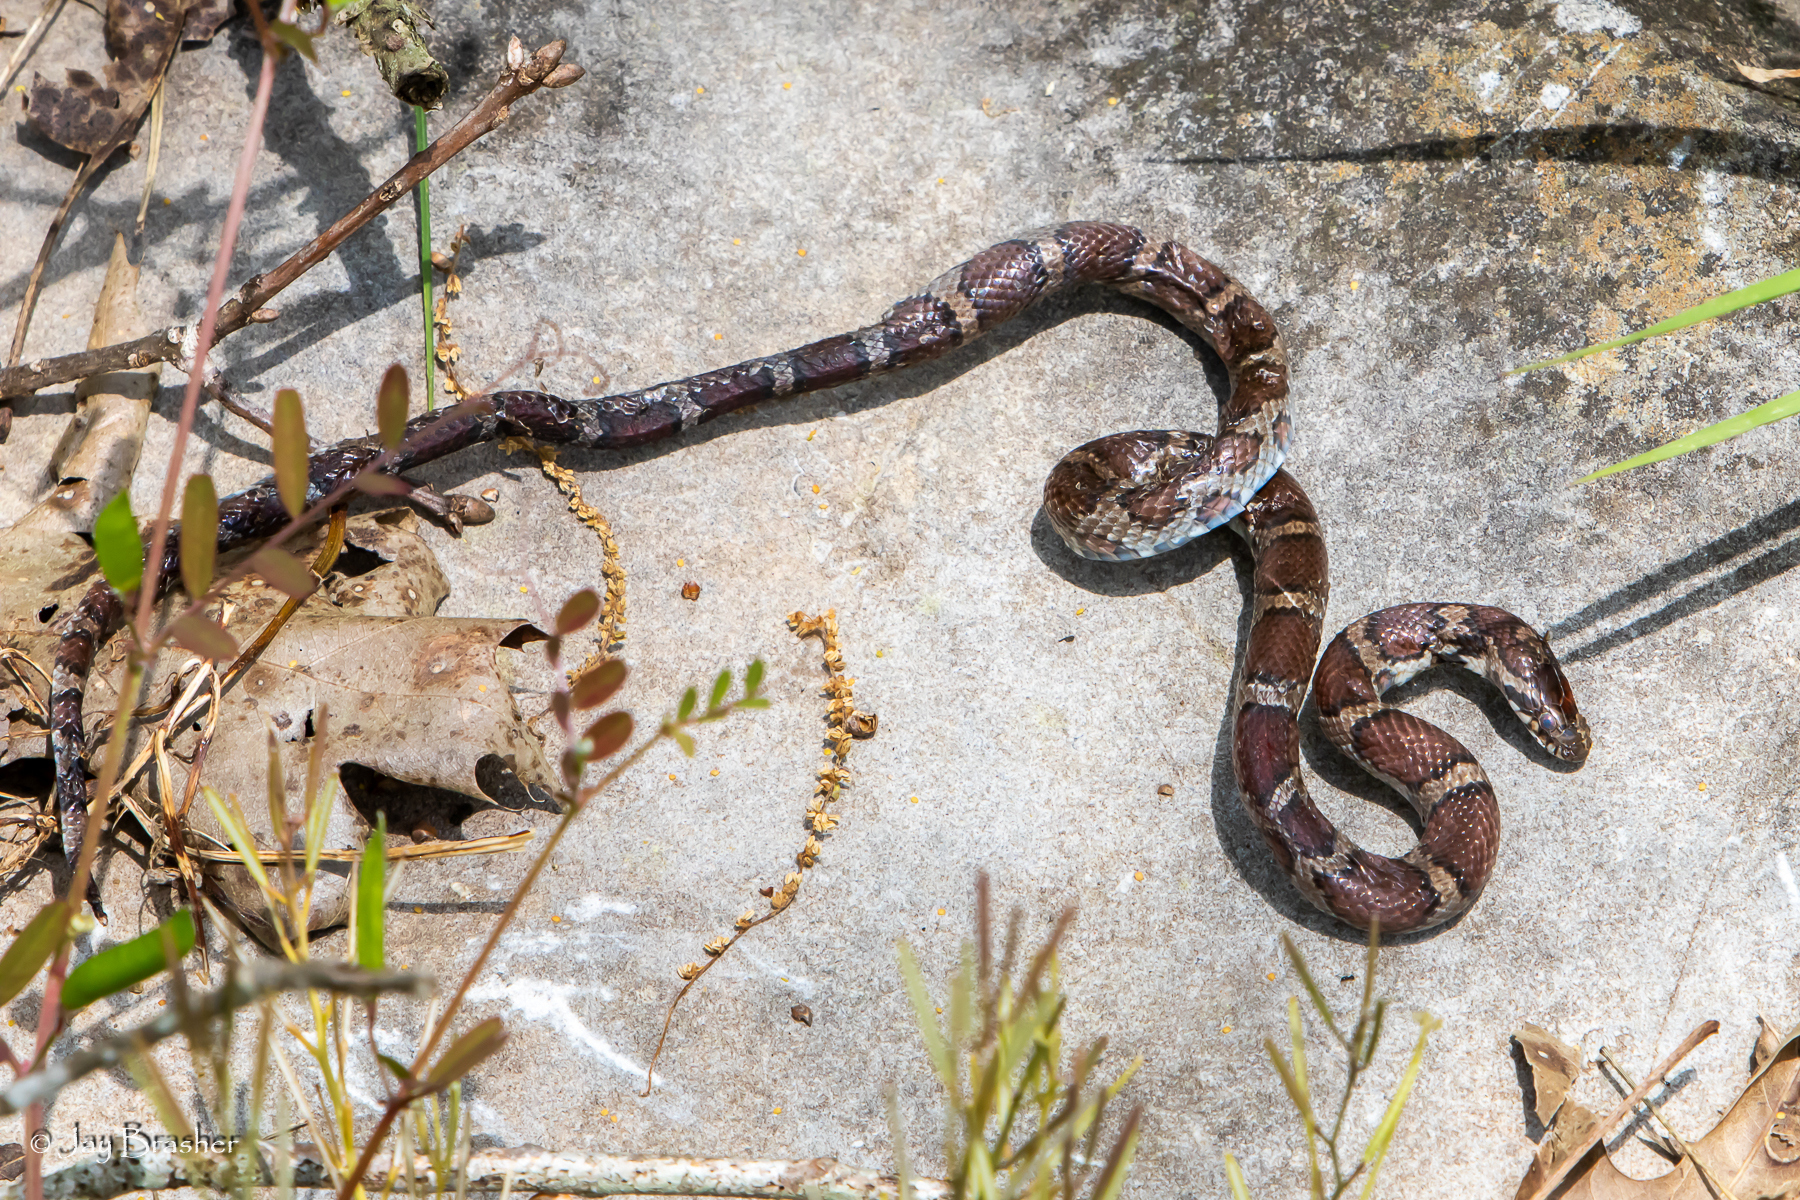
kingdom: Animalia
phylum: Chordata
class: Squamata
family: Colubridae
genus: Lampropeltis
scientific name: Lampropeltis triangulum
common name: Eastern milksnake
